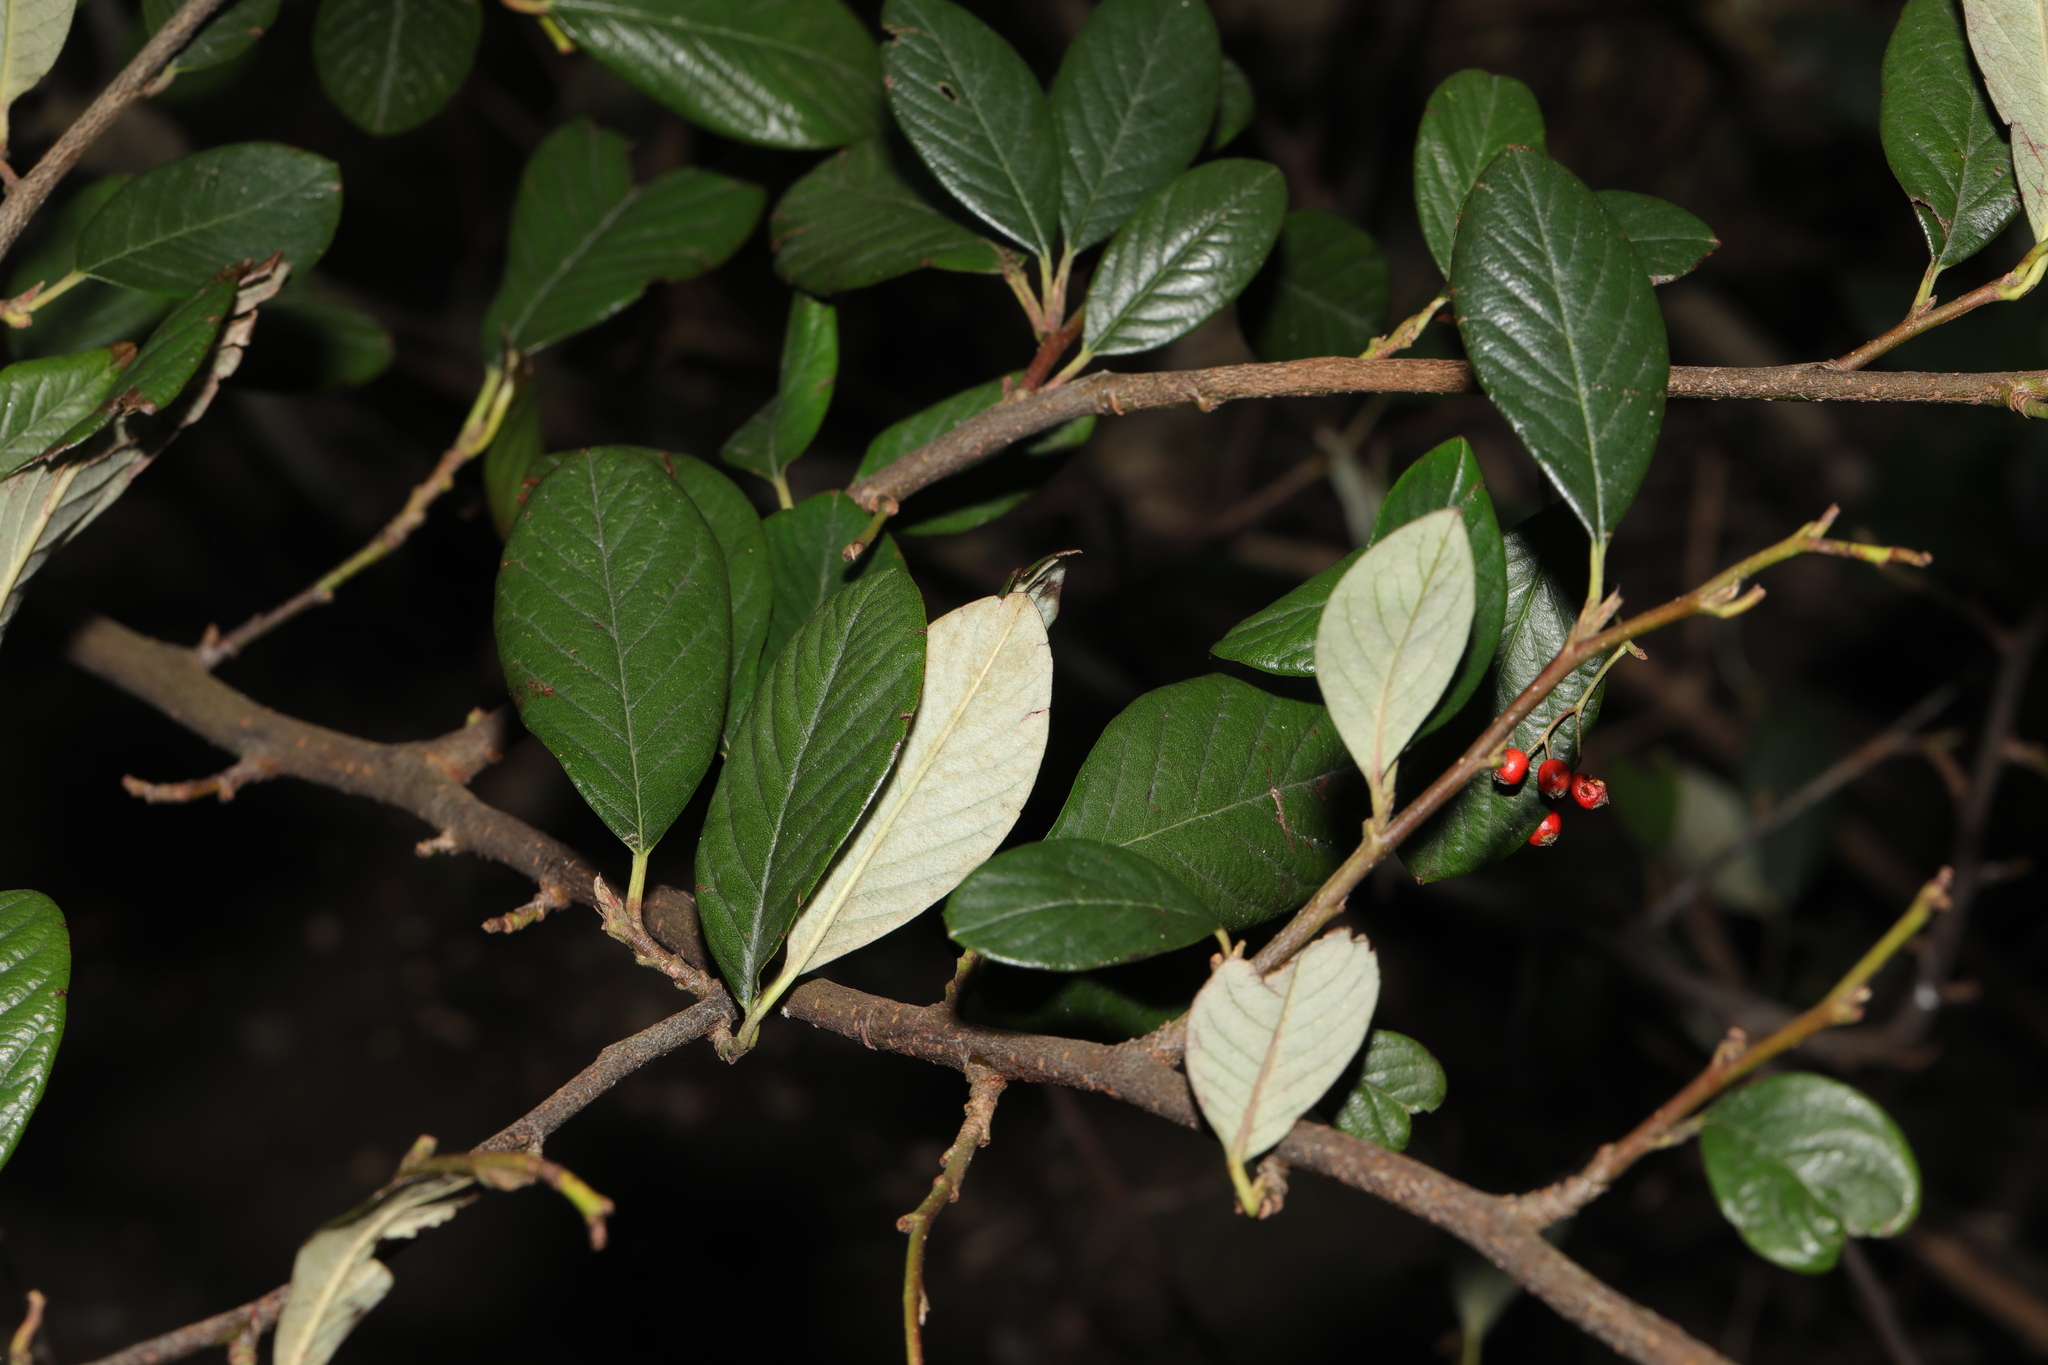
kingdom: Plantae
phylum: Tracheophyta
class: Magnoliopsida
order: Rosales
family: Rosaceae
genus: Cotoneaster
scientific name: Cotoneaster coriaceus
